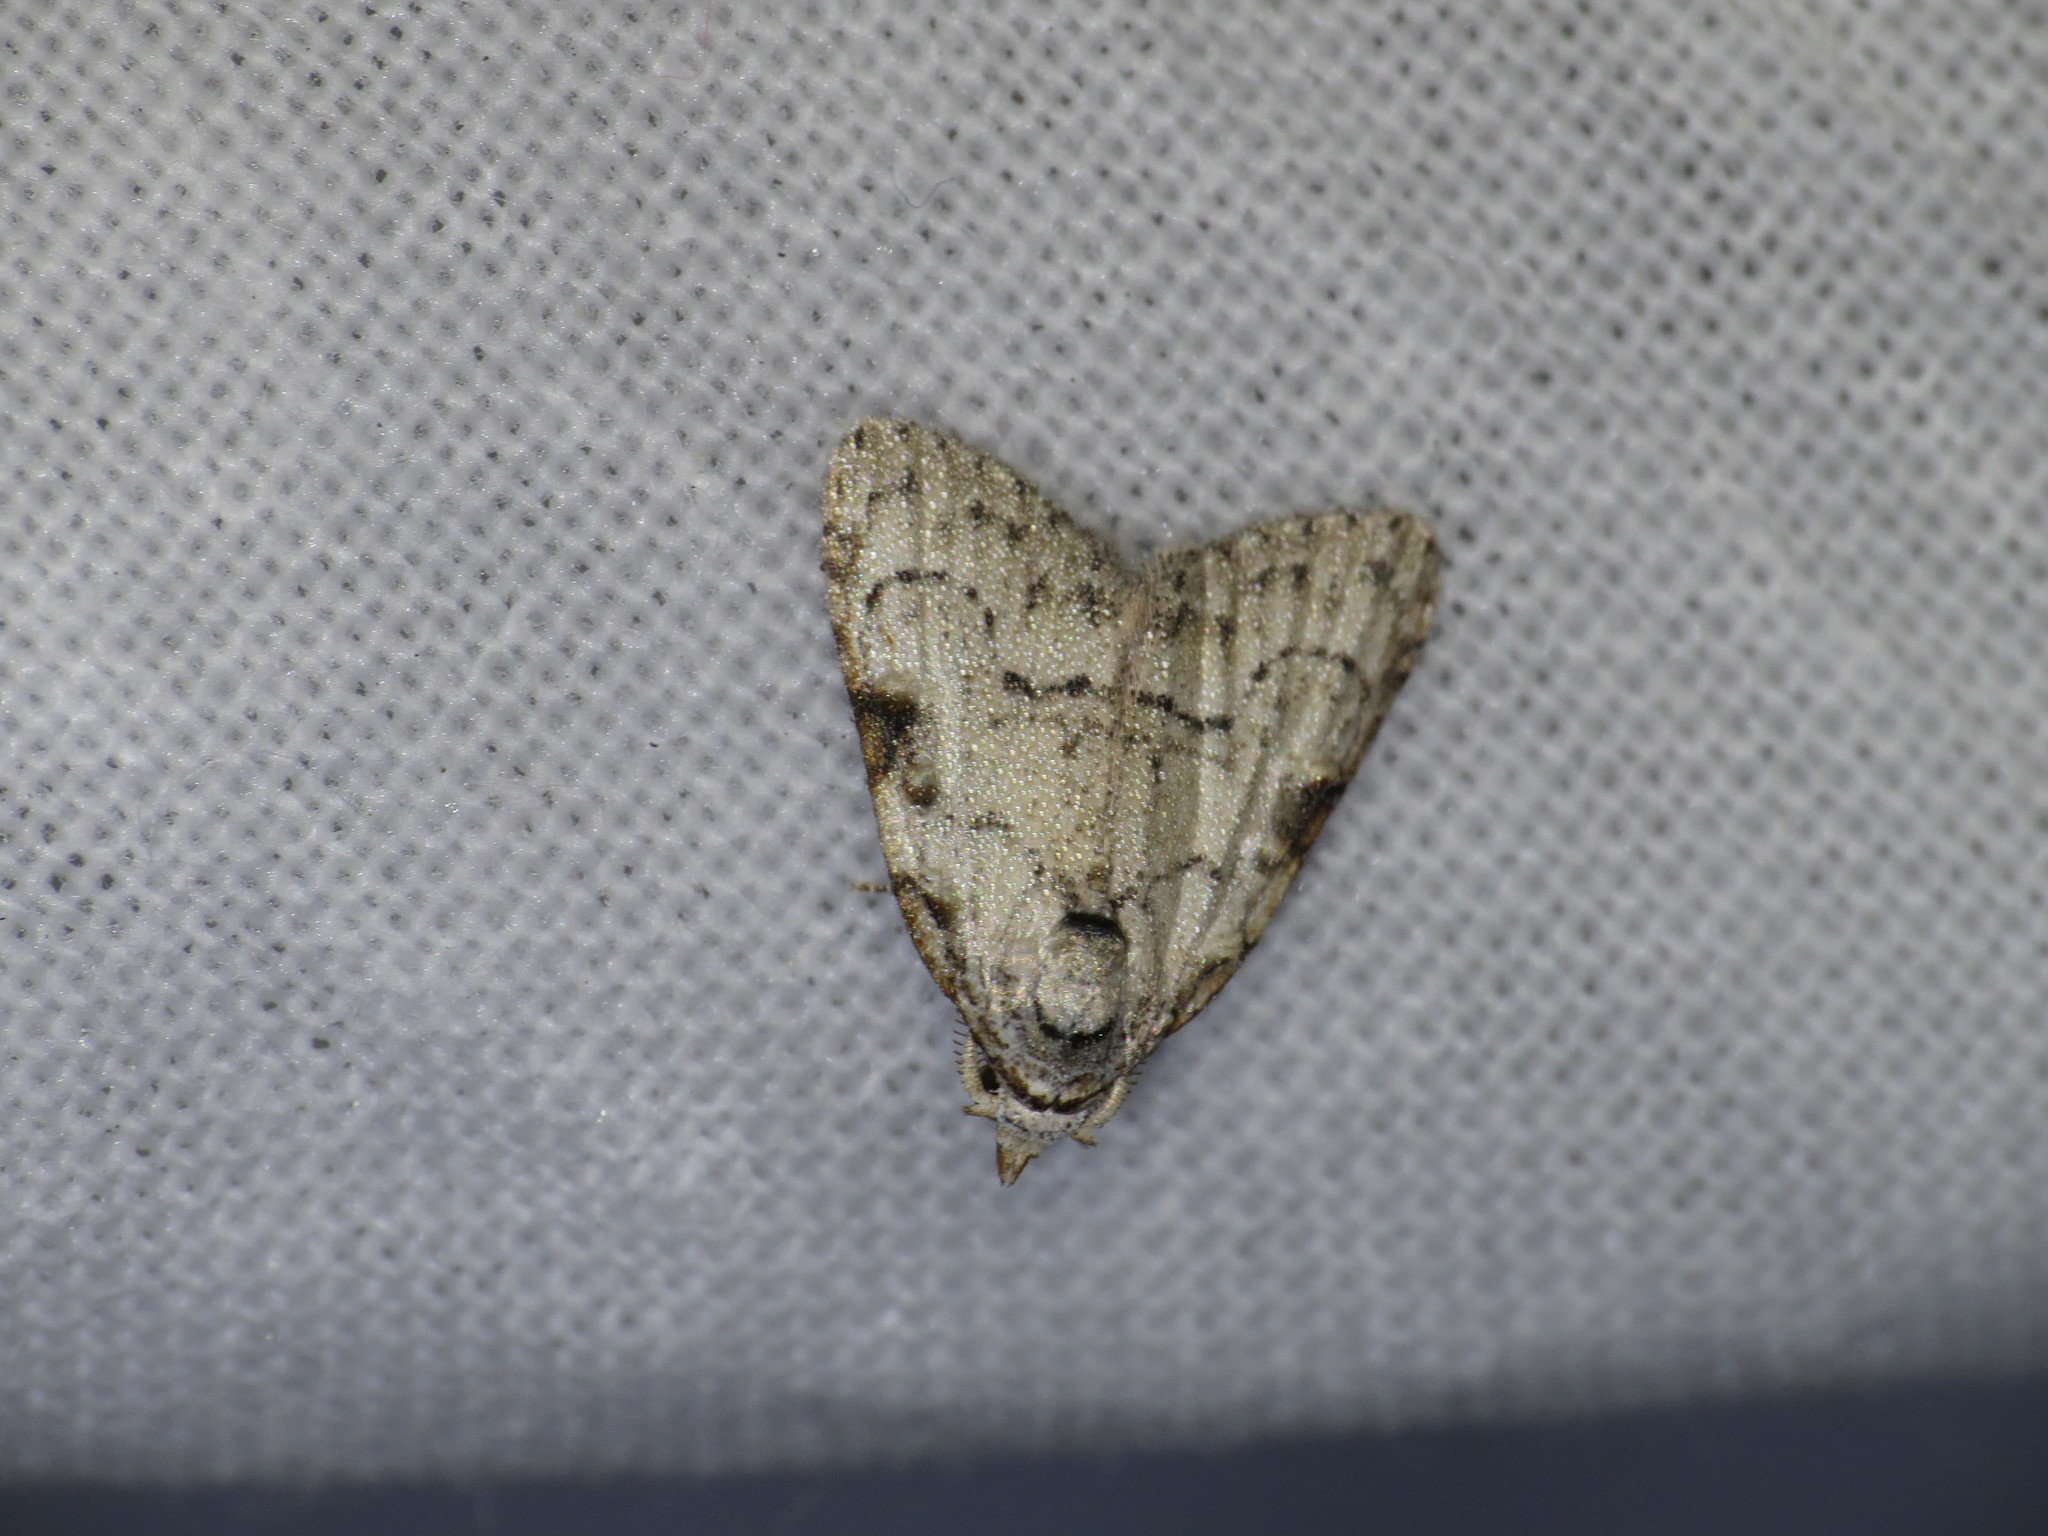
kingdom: Animalia
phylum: Arthropoda
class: Insecta
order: Lepidoptera
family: Nolidae
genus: Meganola
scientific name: Meganola minuscula
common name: Confused meganola moth
